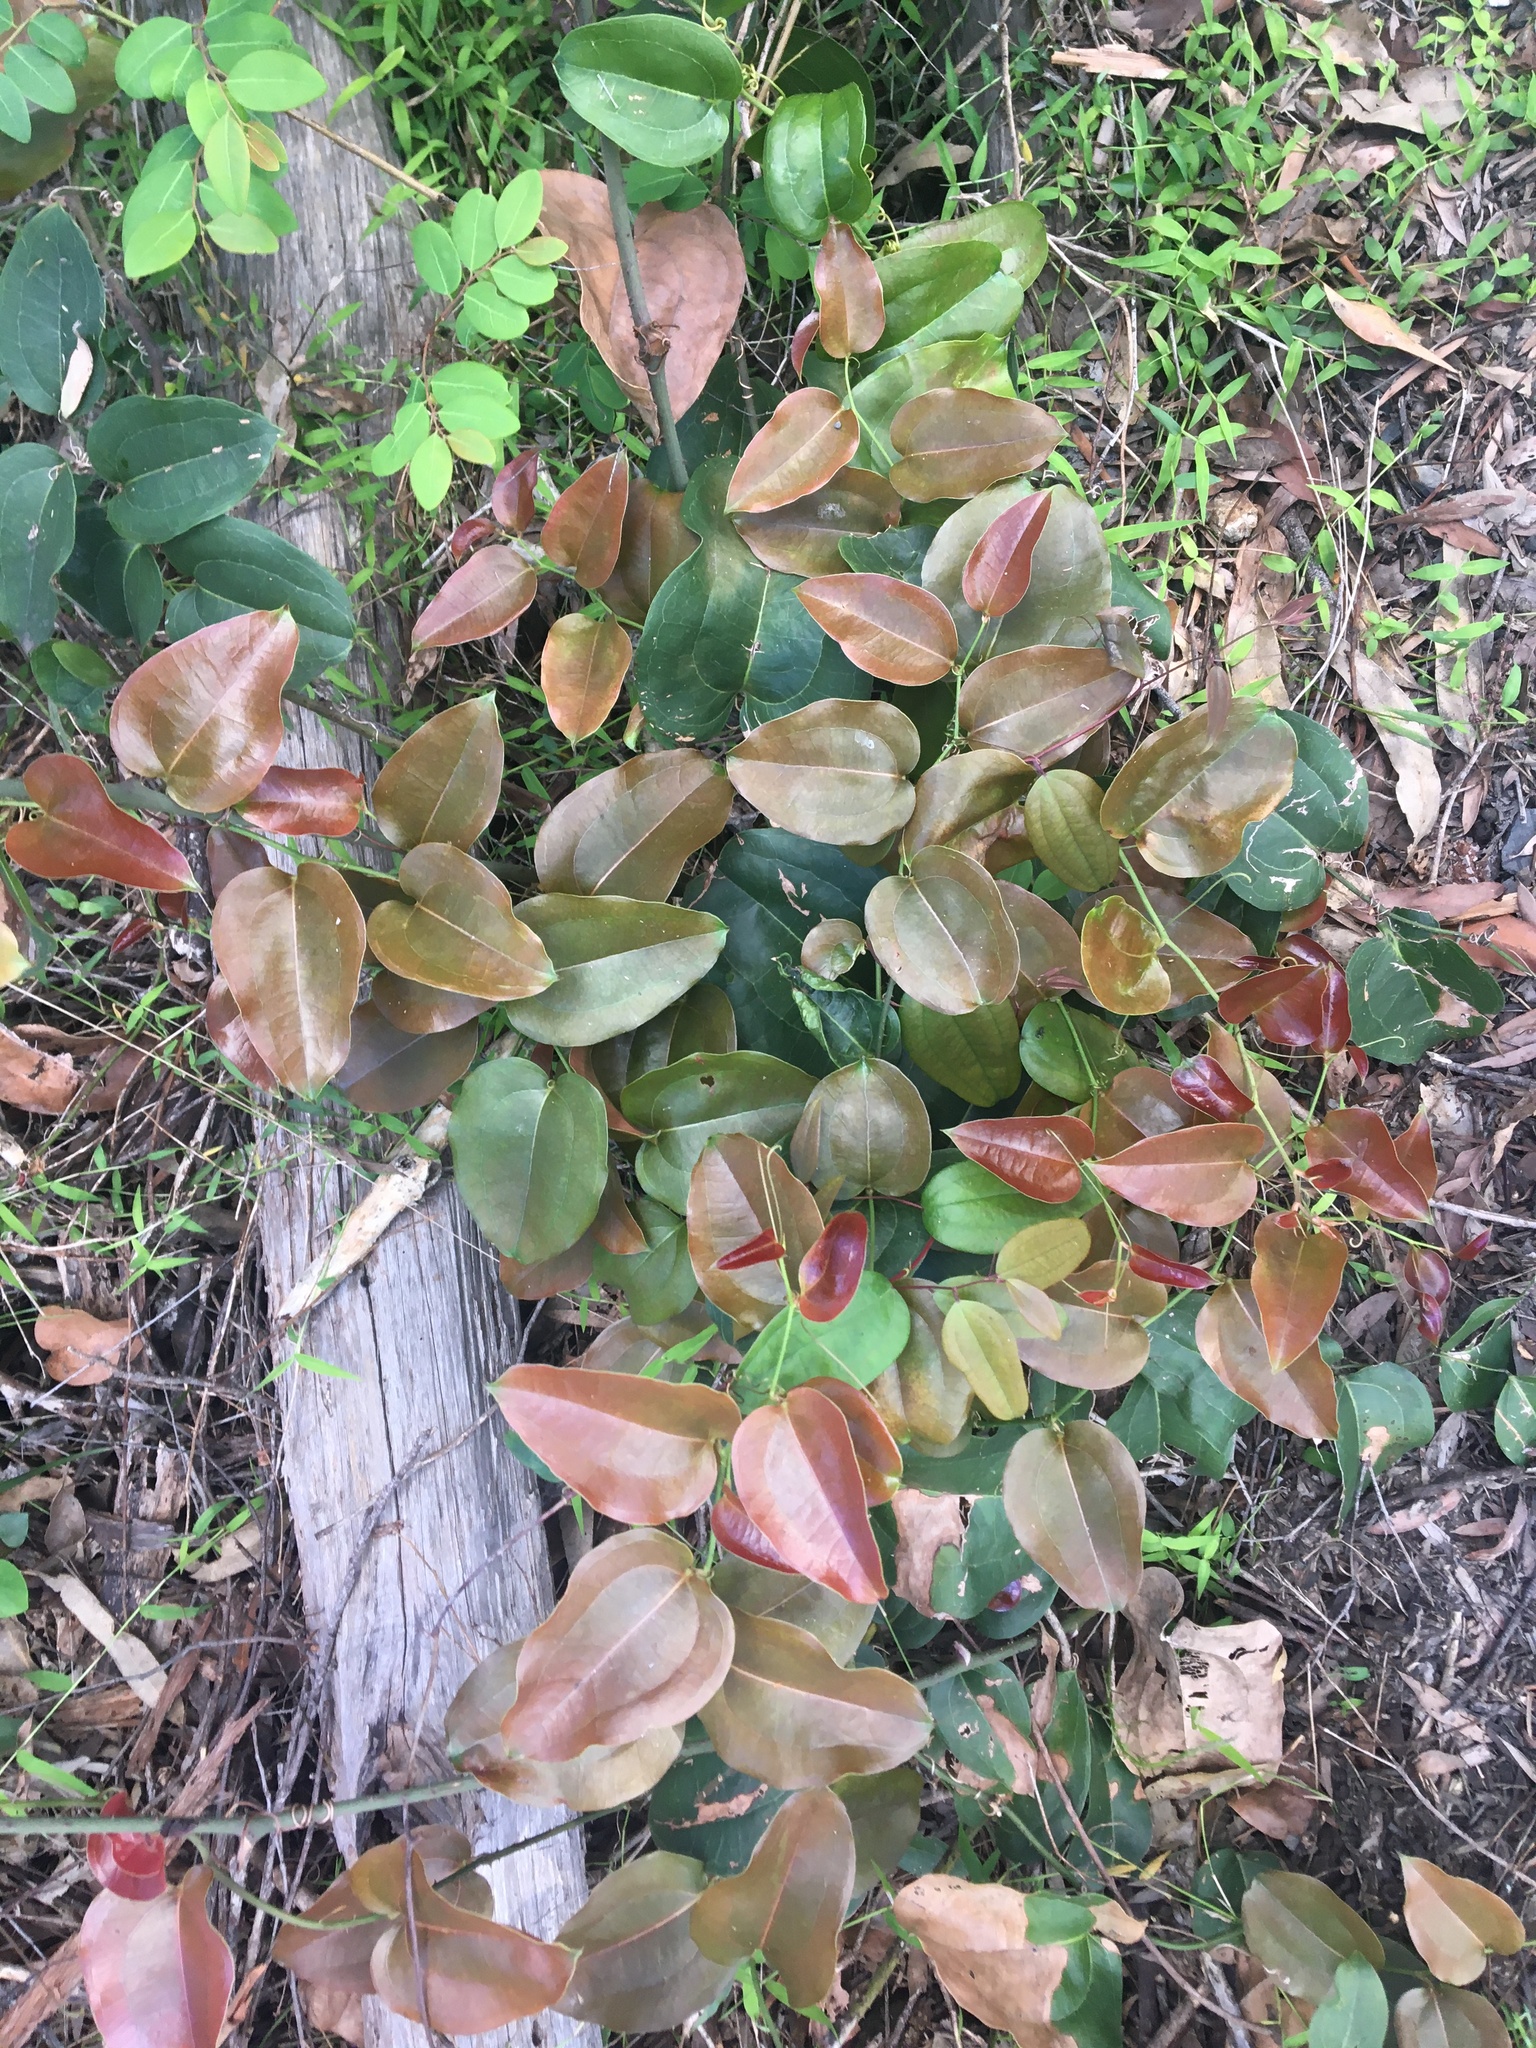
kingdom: Plantae
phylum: Tracheophyta
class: Liliopsida
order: Liliales
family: Smilacaceae
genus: Smilax
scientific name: Smilax australis
